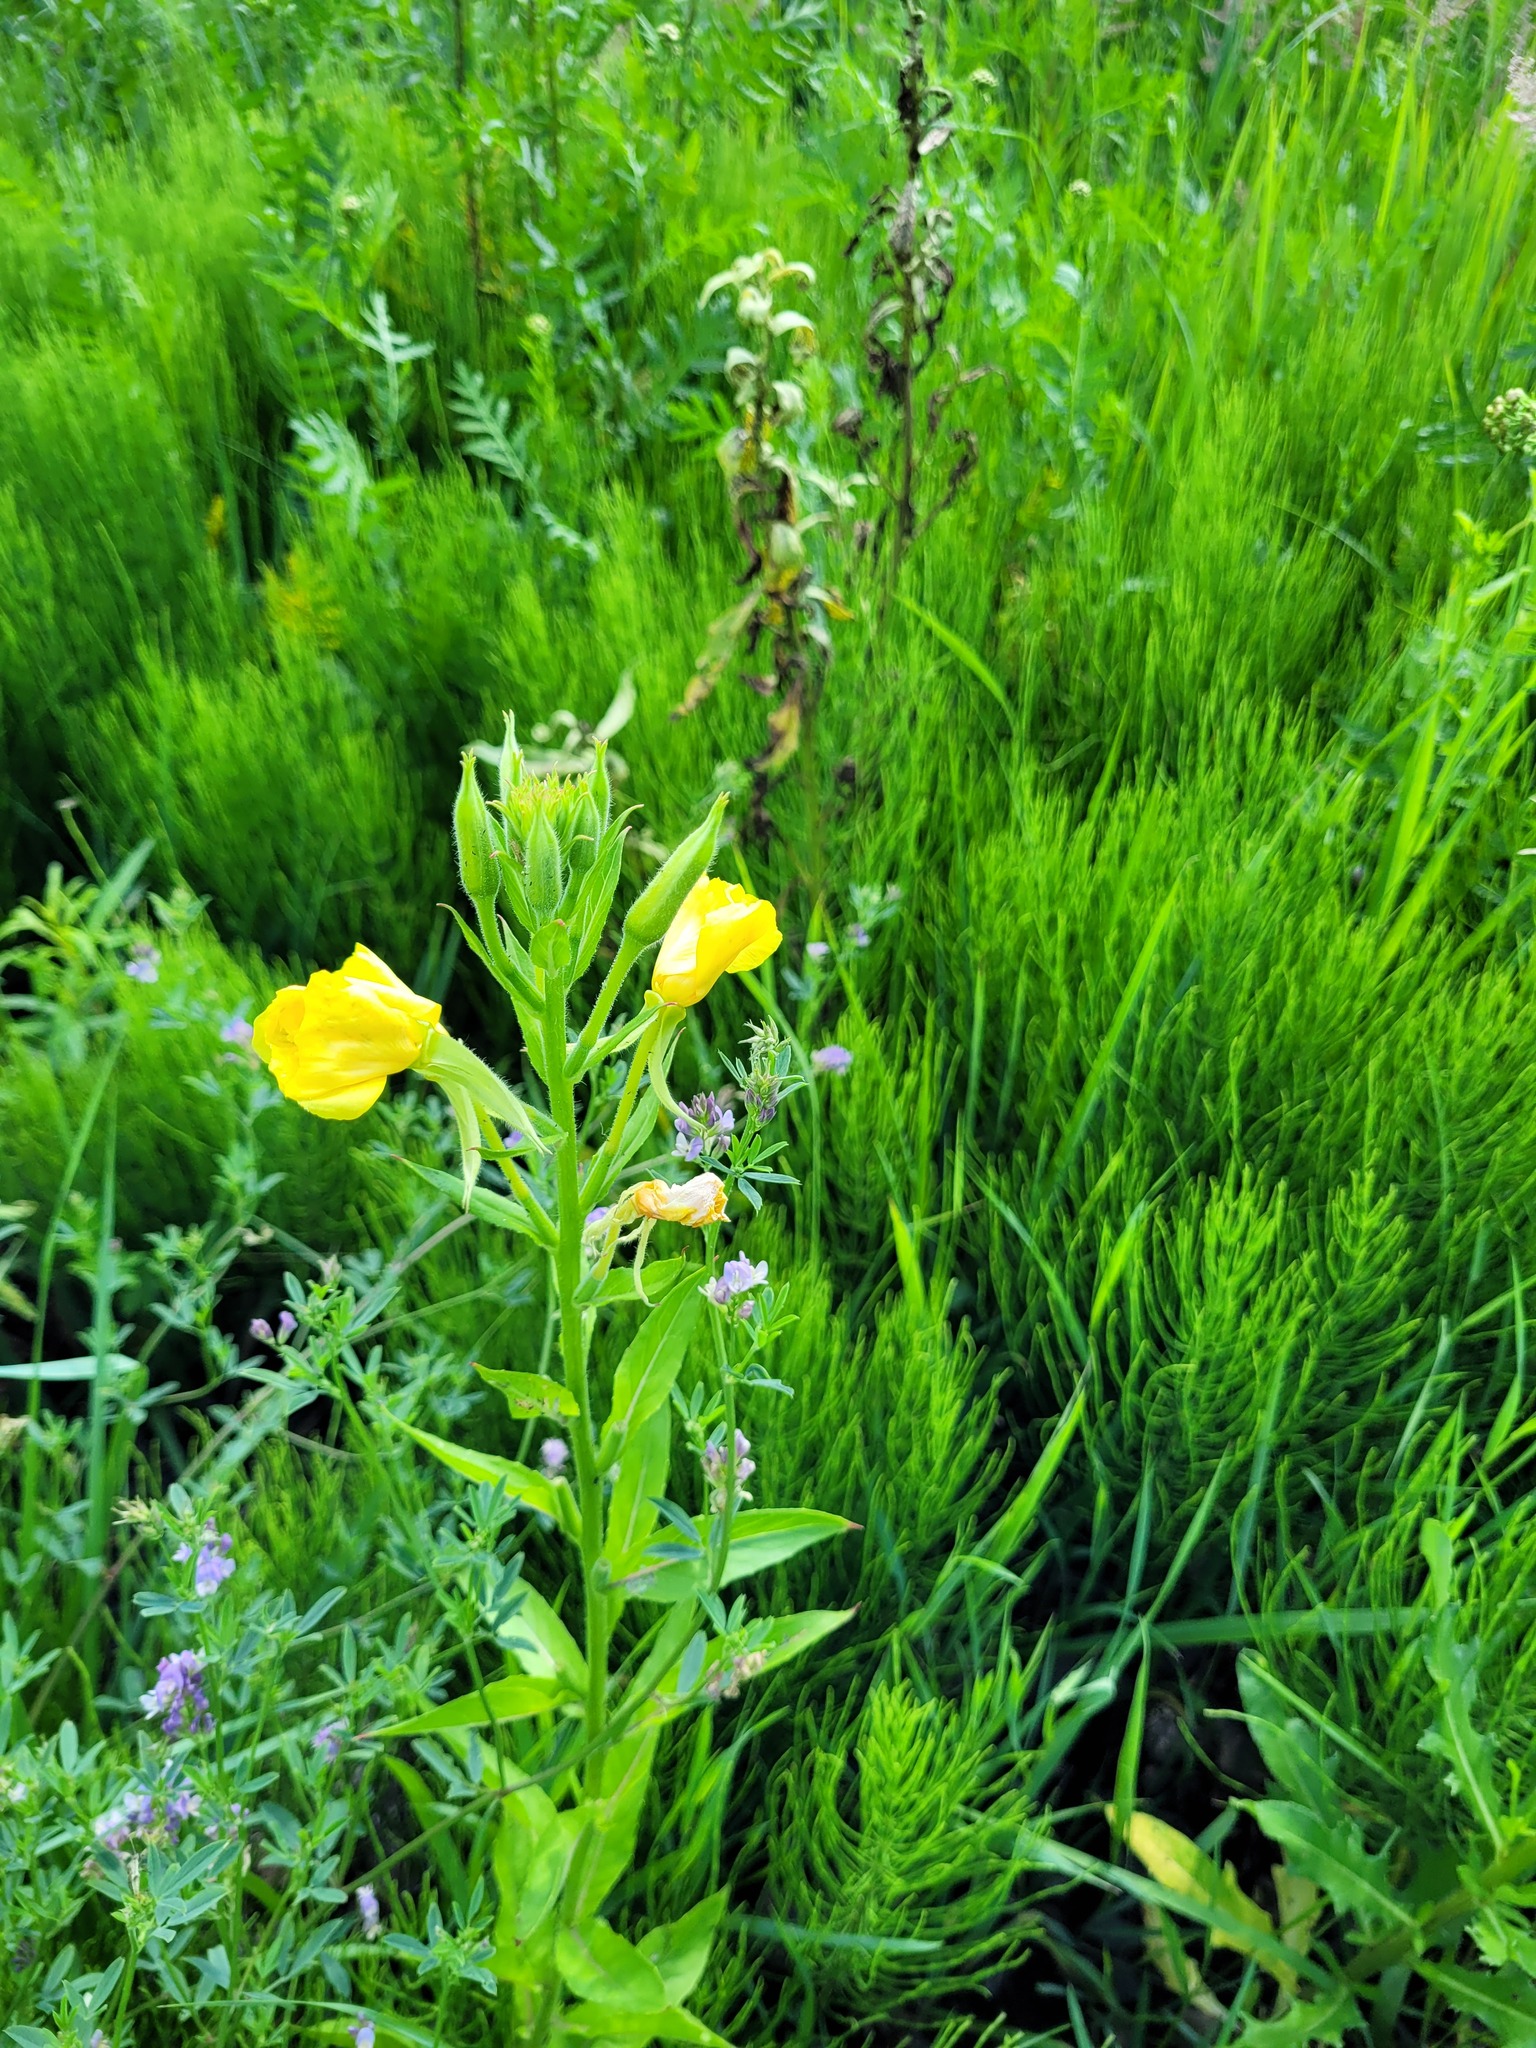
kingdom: Plantae
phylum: Tracheophyta
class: Magnoliopsida
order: Myrtales
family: Onagraceae
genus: Oenothera
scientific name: Oenothera biennis
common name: Common evening-primrose
